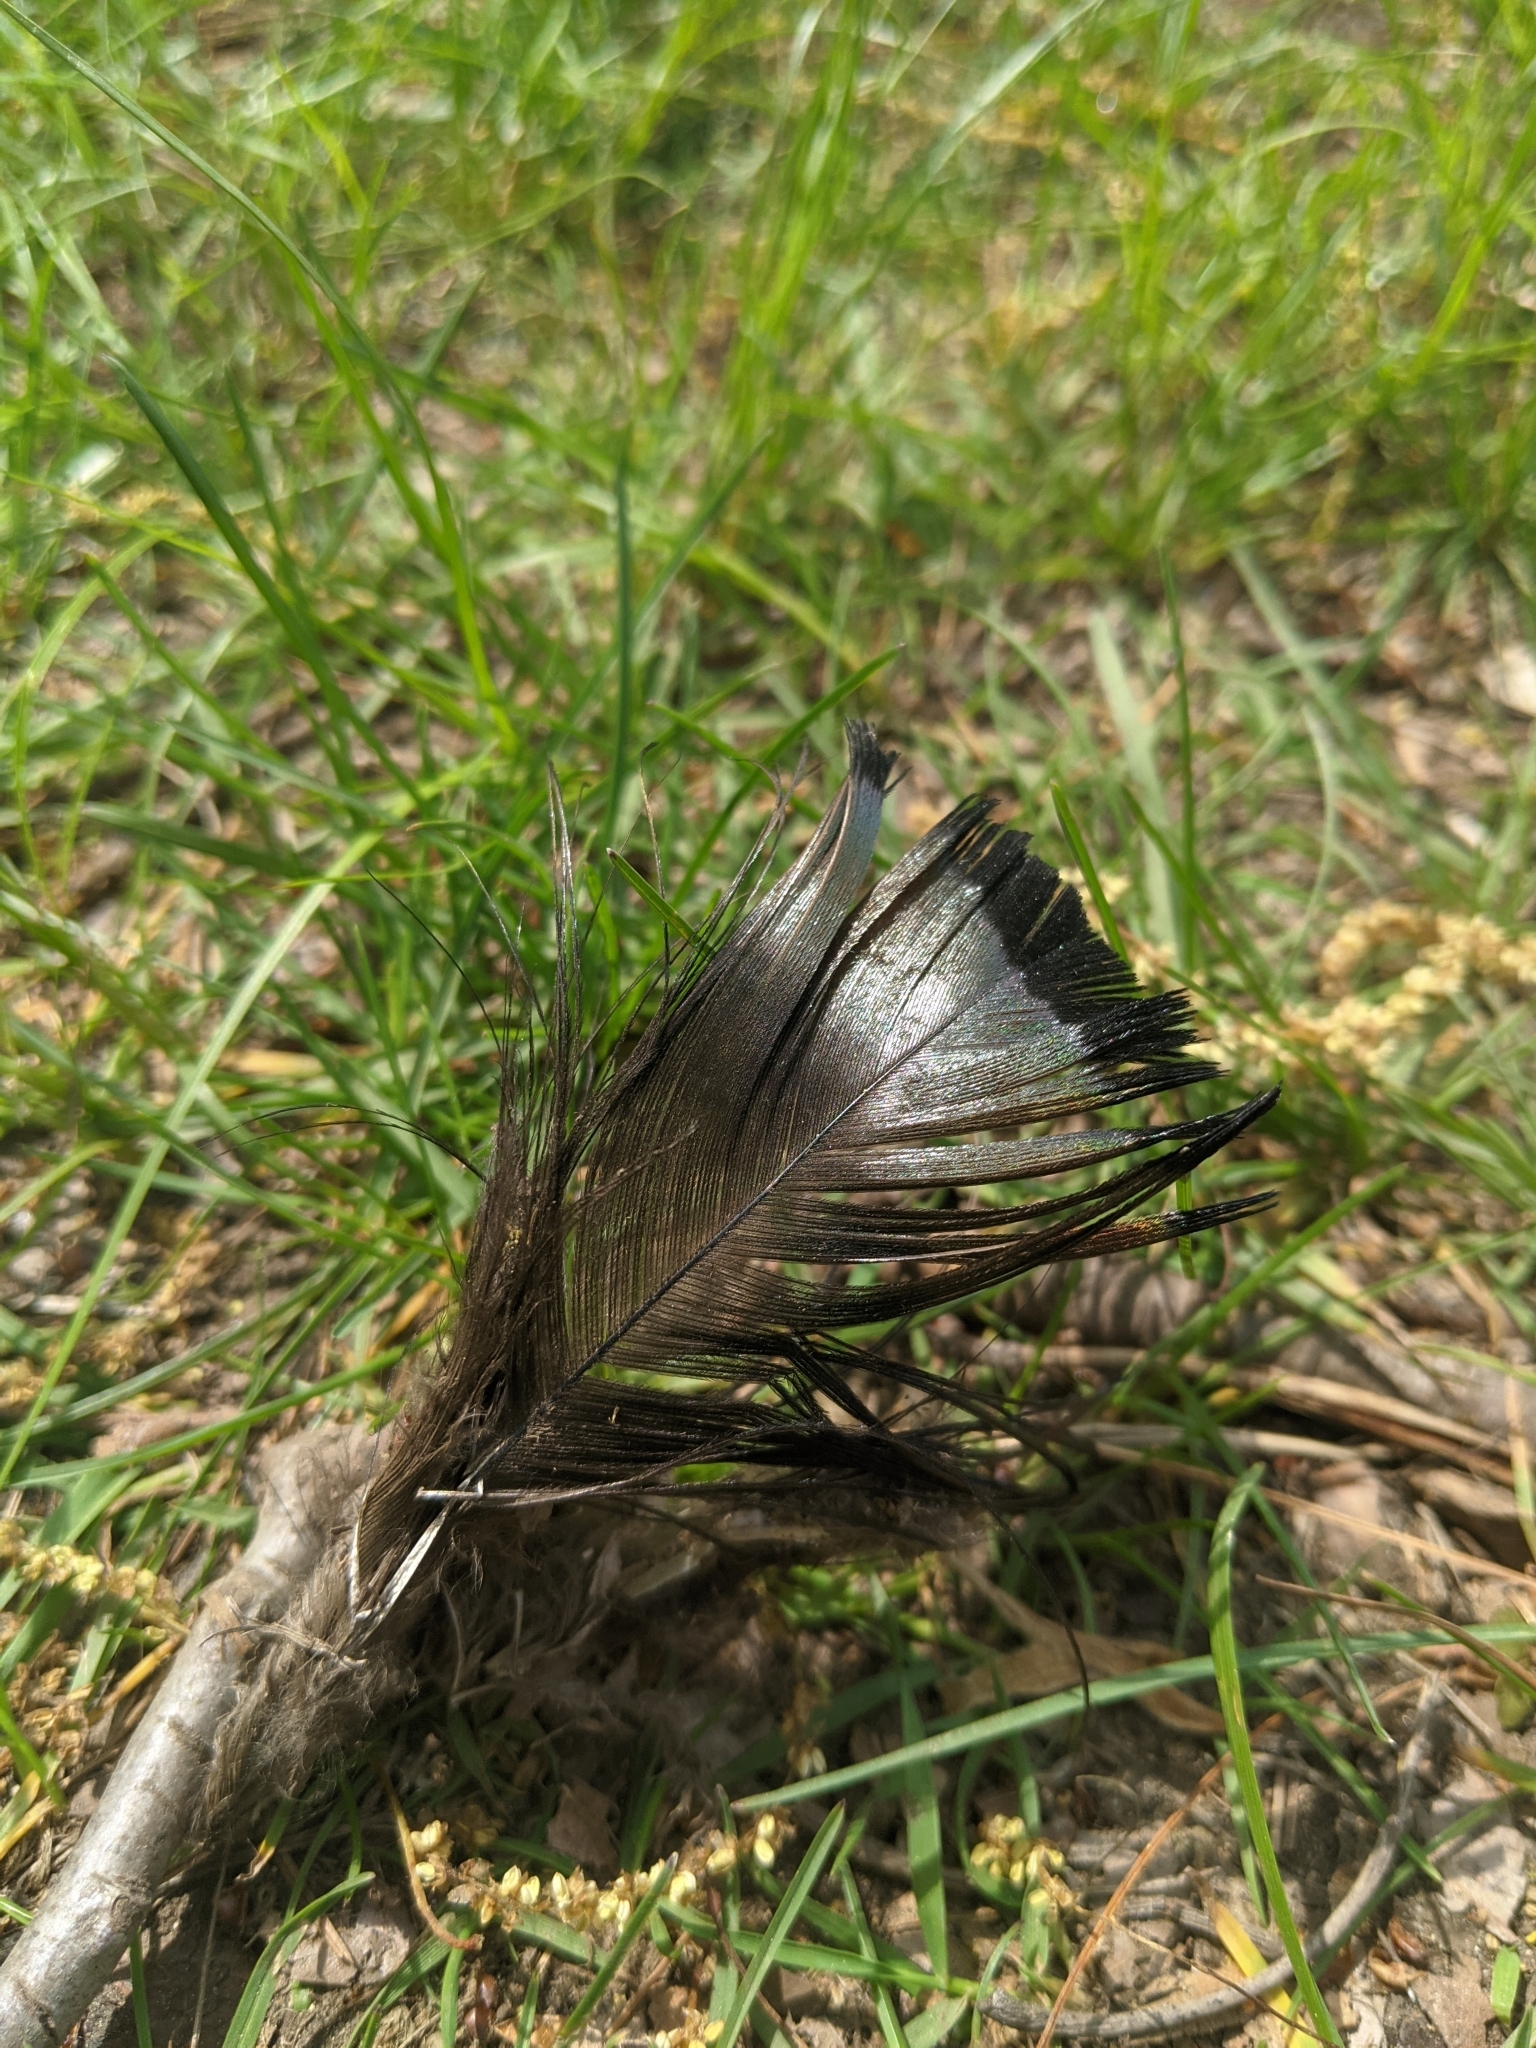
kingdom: Animalia
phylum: Chordata
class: Aves
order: Galliformes
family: Phasianidae
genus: Meleagris
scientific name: Meleagris gallopavo
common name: Wild turkey
